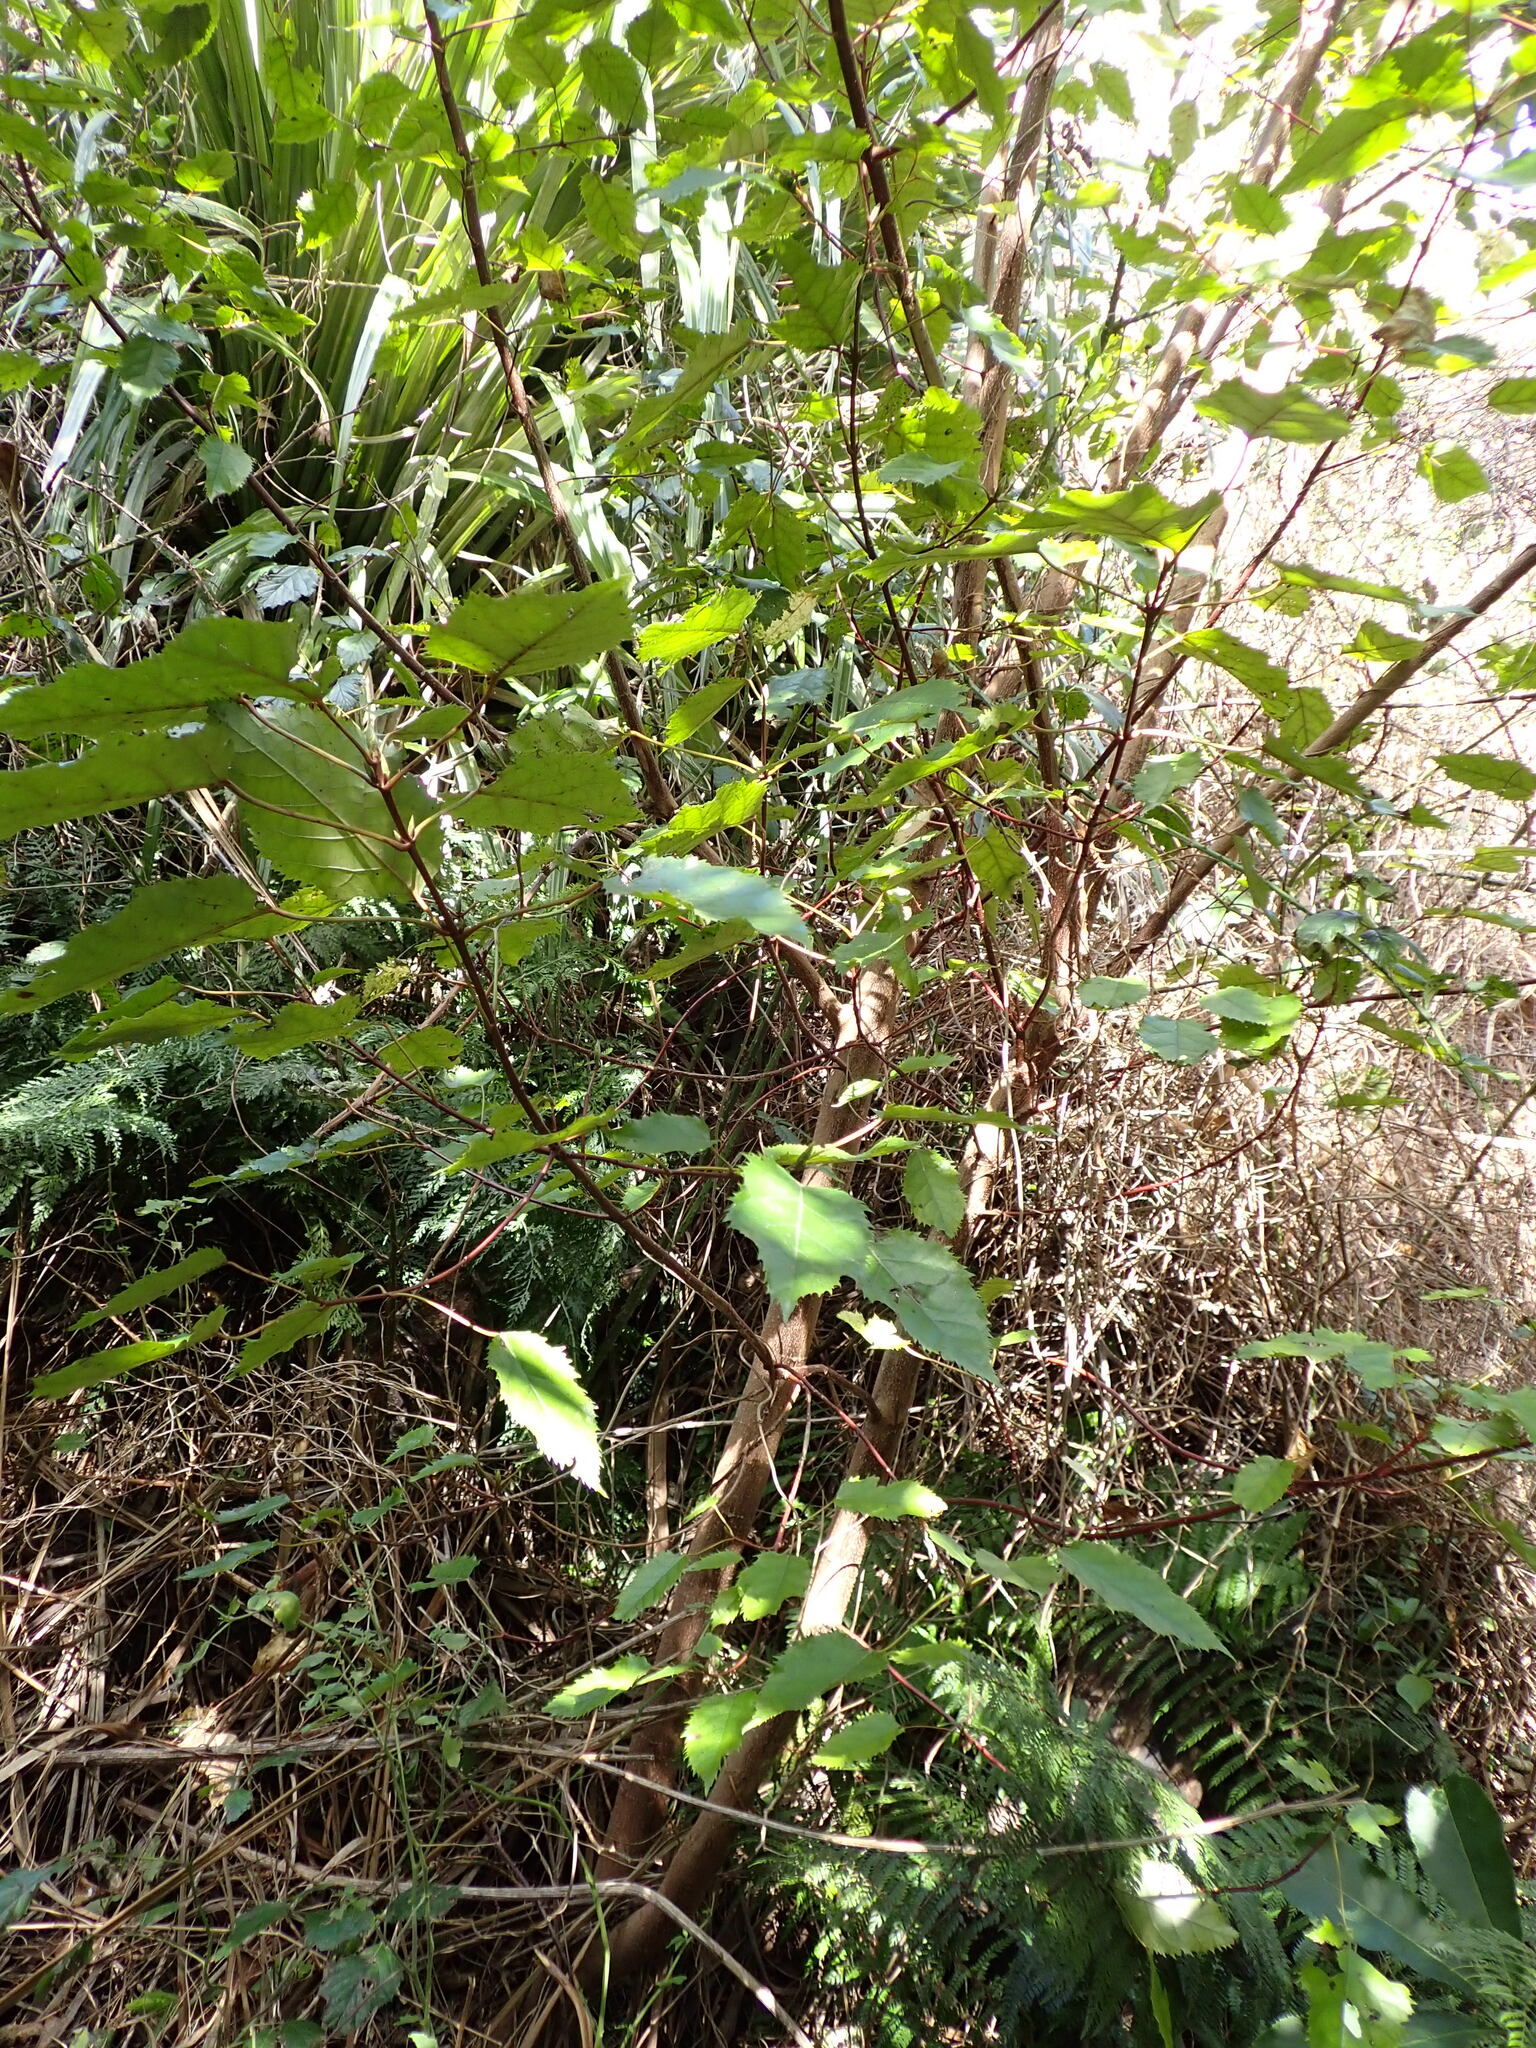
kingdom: Plantae
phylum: Tracheophyta
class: Magnoliopsida
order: Oxalidales
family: Elaeocarpaceae
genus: Aristotelia
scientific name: Aristotelia serrata
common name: New zealand wineberry
